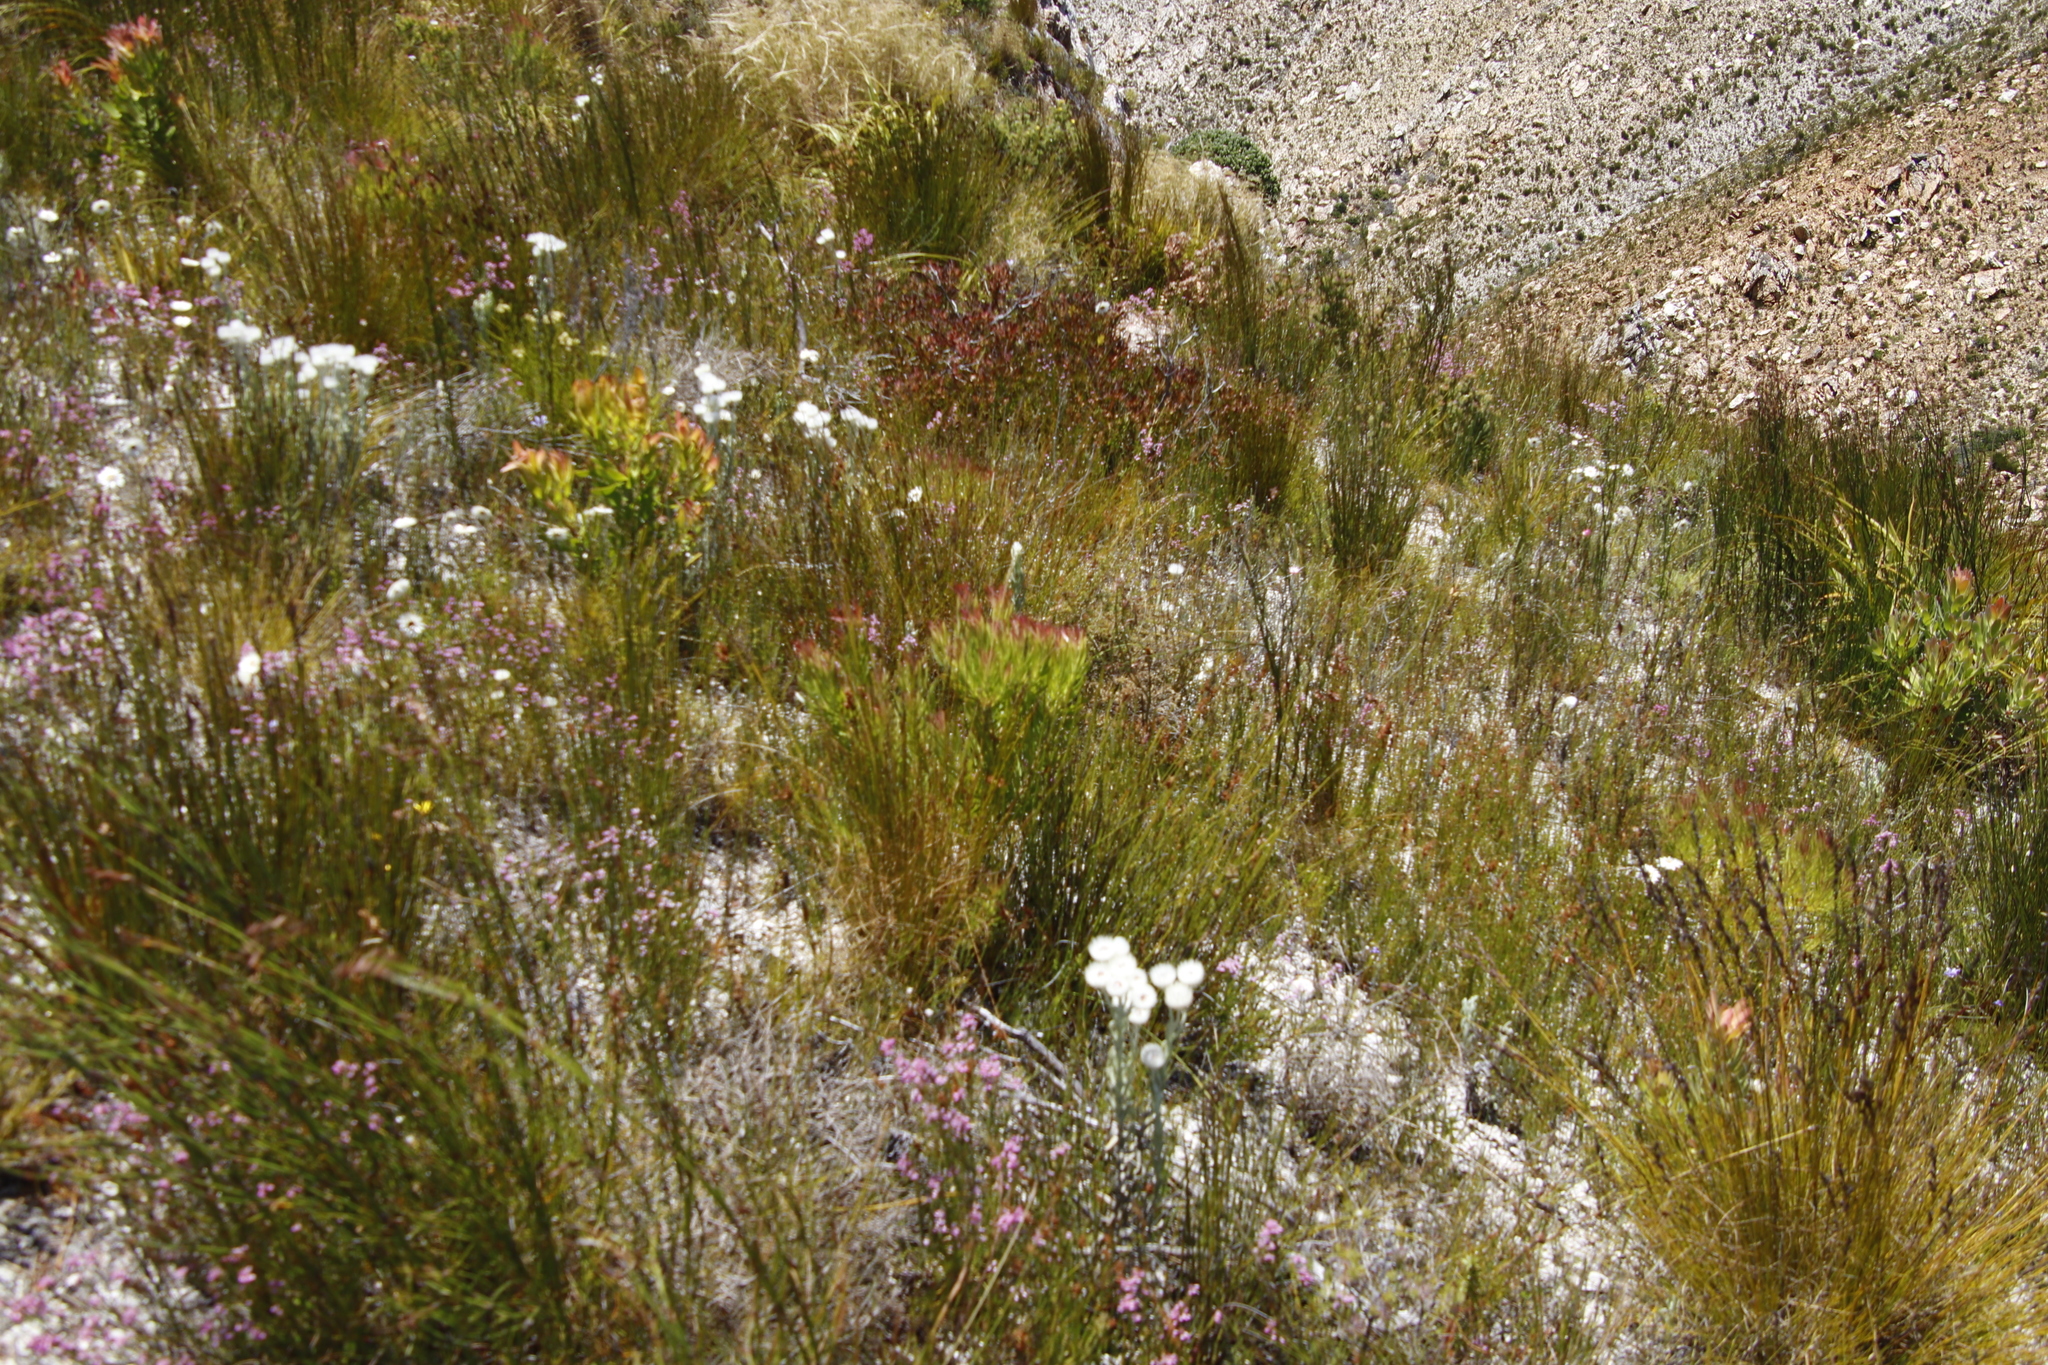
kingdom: Plantae
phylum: Tracheophyta
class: Magnoliopsida
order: Proteales
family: Proteaceae
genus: Leucadendron
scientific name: Leucadendron xanthoconus
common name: Sickle-leaf conebush
